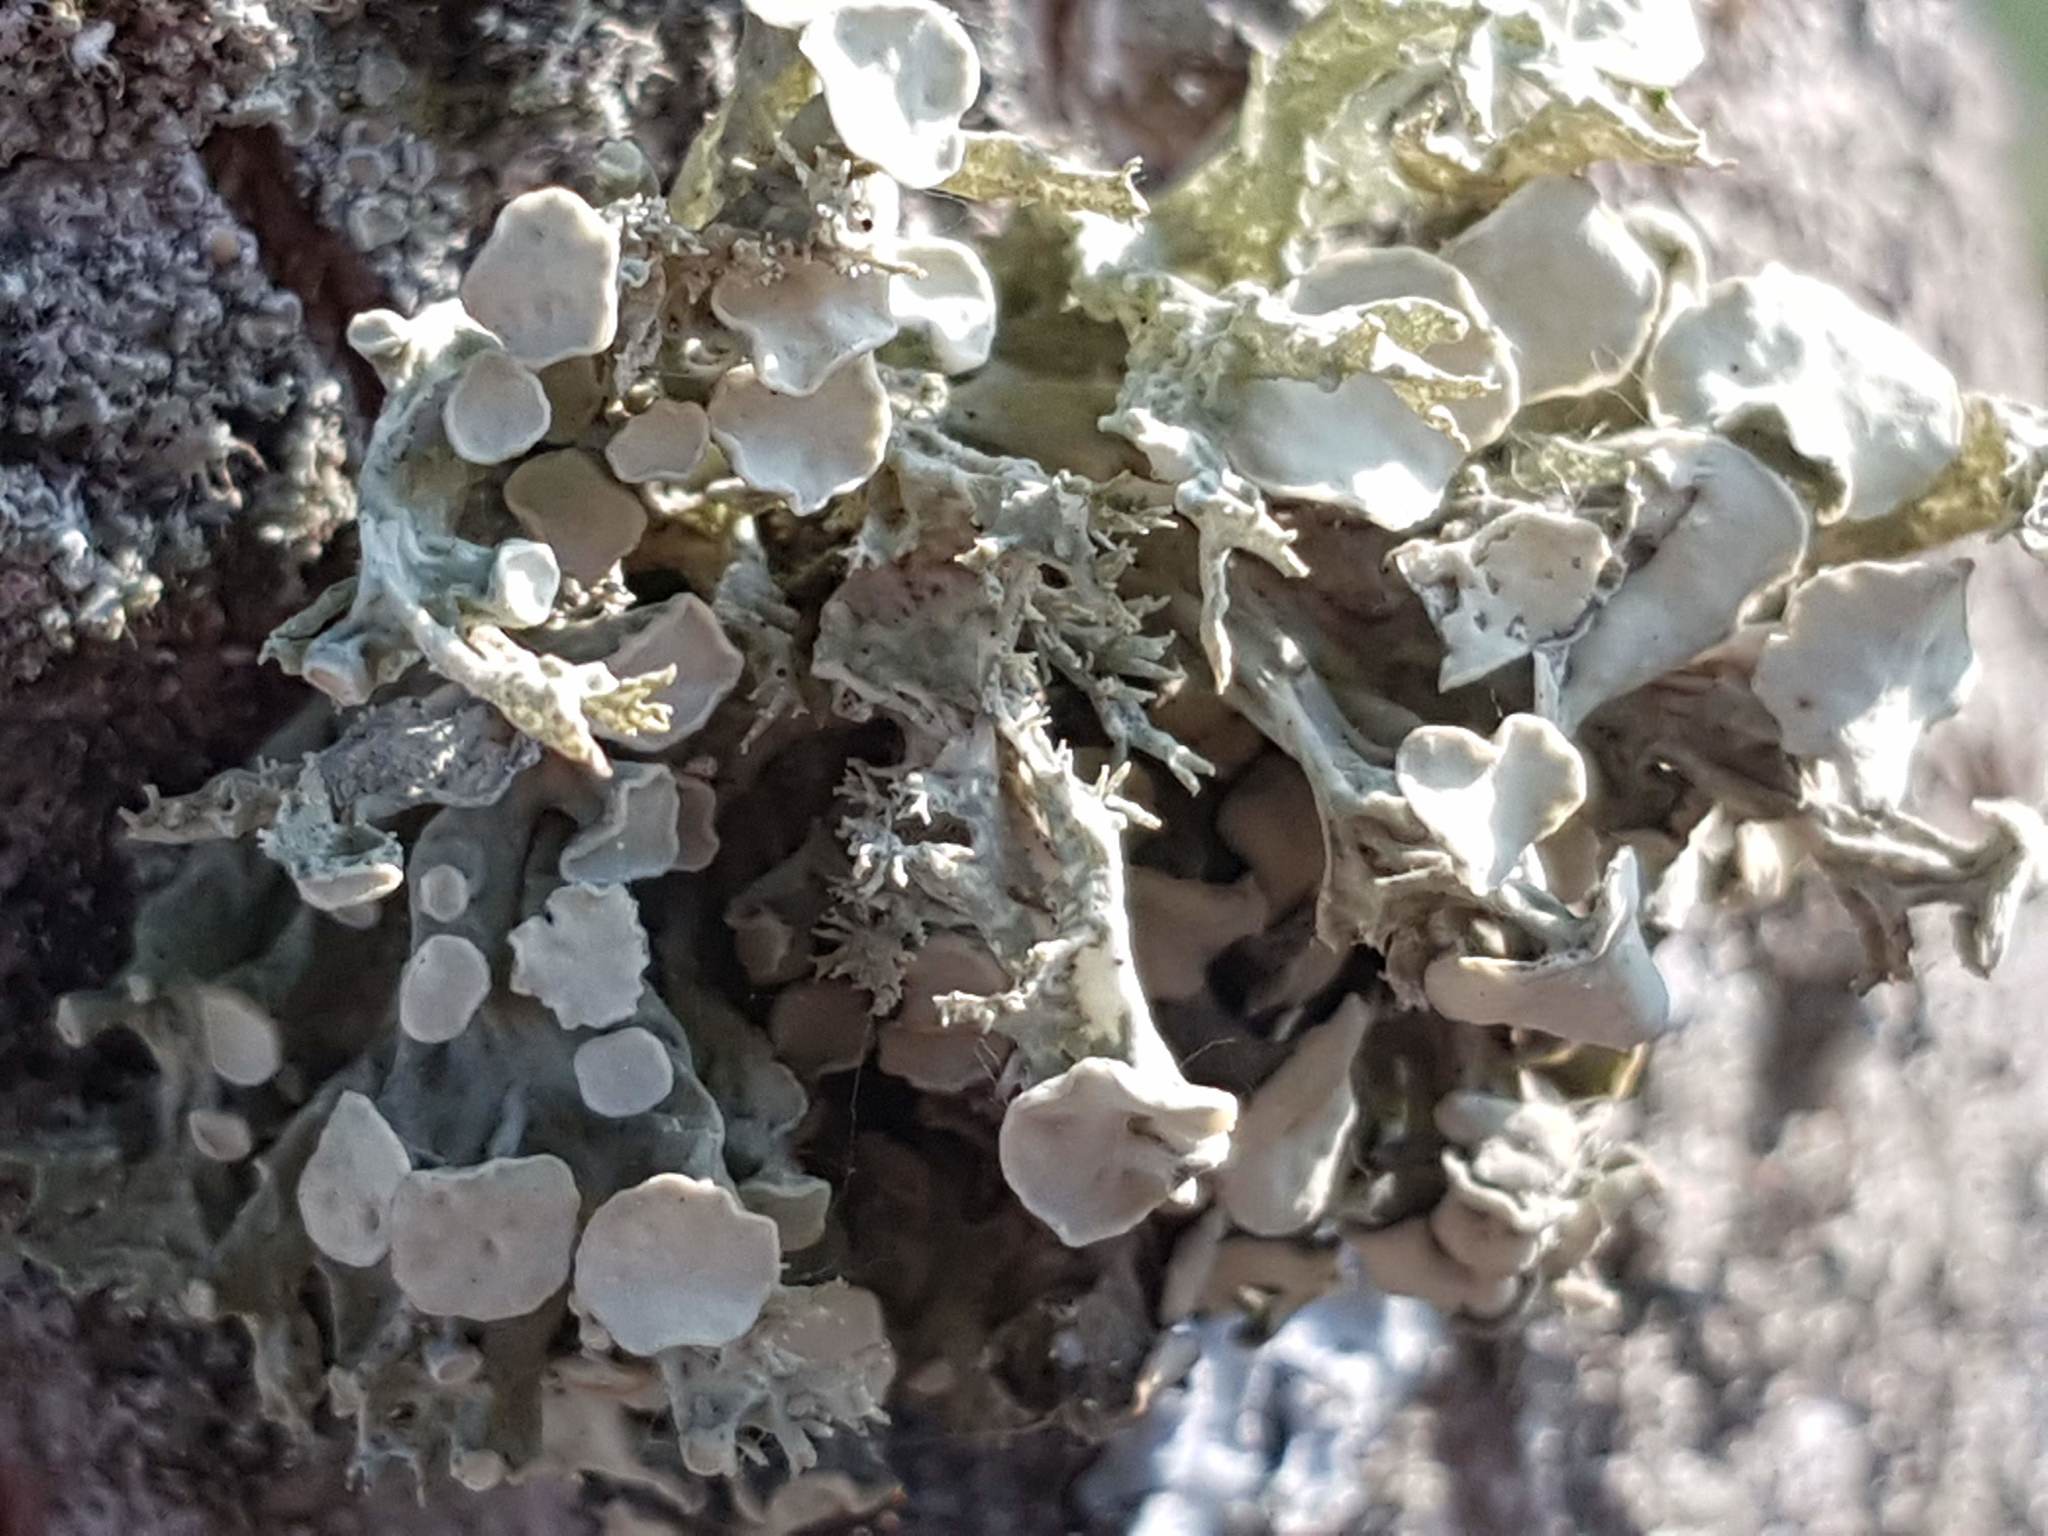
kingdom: Fungi
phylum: Ascomycota
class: Lecanoromycetes
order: Lecanorales
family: Ramalinaceae
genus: Ramalina
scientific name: Ramalina fastigiata
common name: Dotted ribbon lichen
